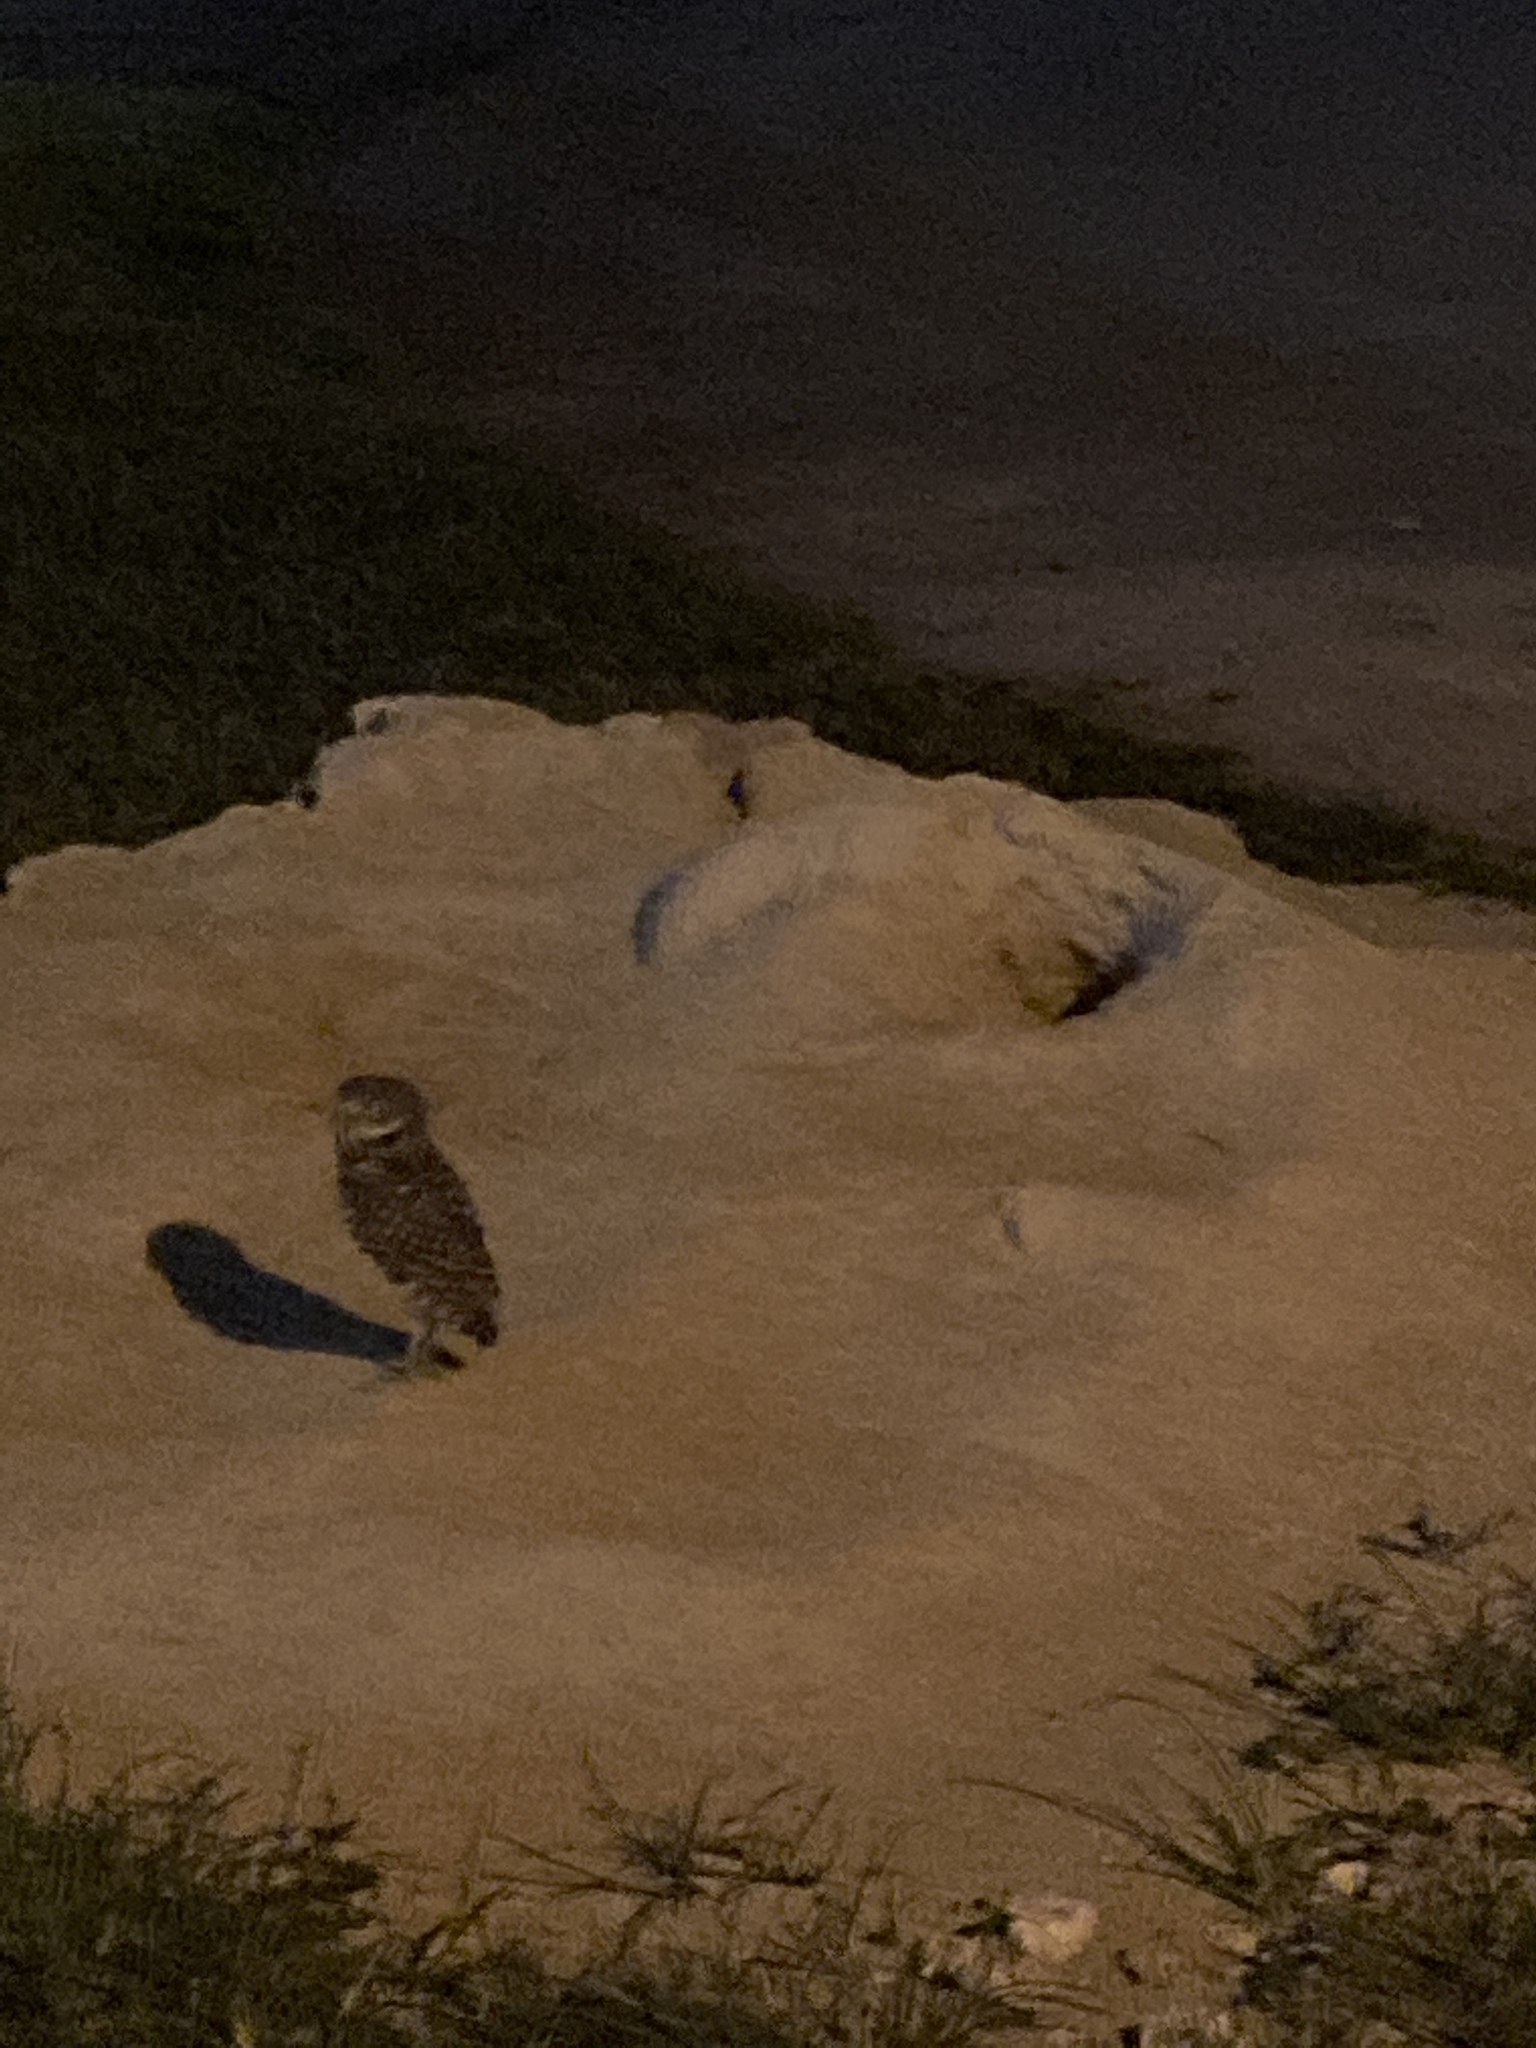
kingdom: Animalia
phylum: Chordata
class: Aves
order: Strigiformes
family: Strigidae
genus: Athene
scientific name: Athene cunicularia
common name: Burrowing owl
